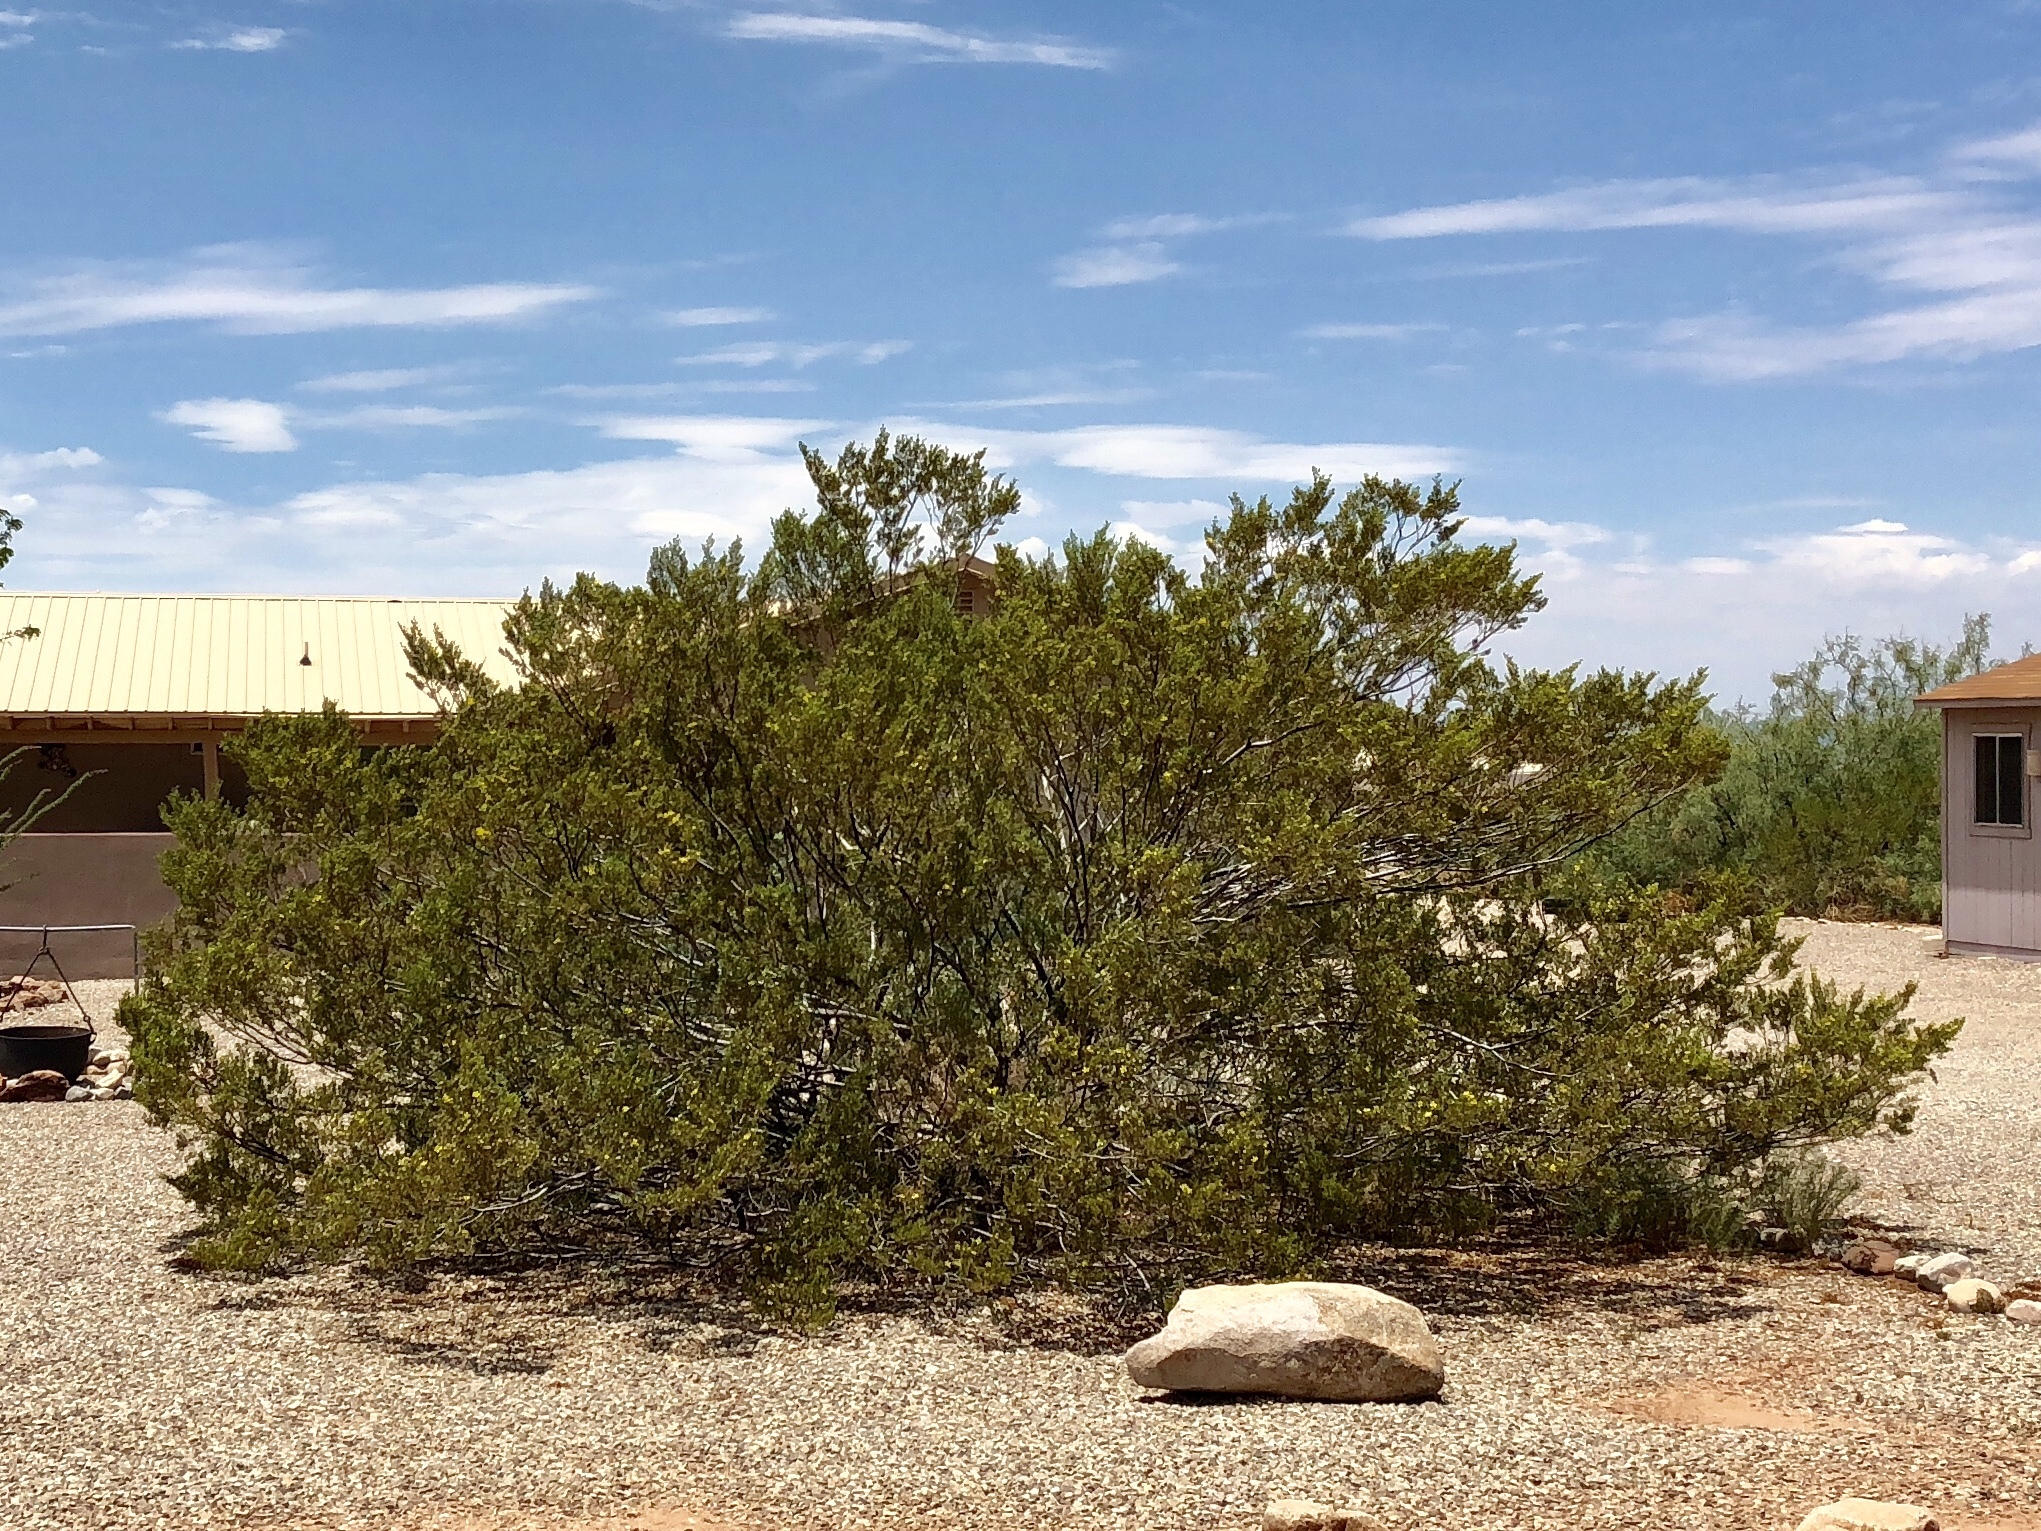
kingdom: Plantae
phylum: Tracheophyta
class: Magnoliopsida
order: Zygophyllales
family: Zygophyllaceae
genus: Larrea
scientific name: Larrea tridentata
